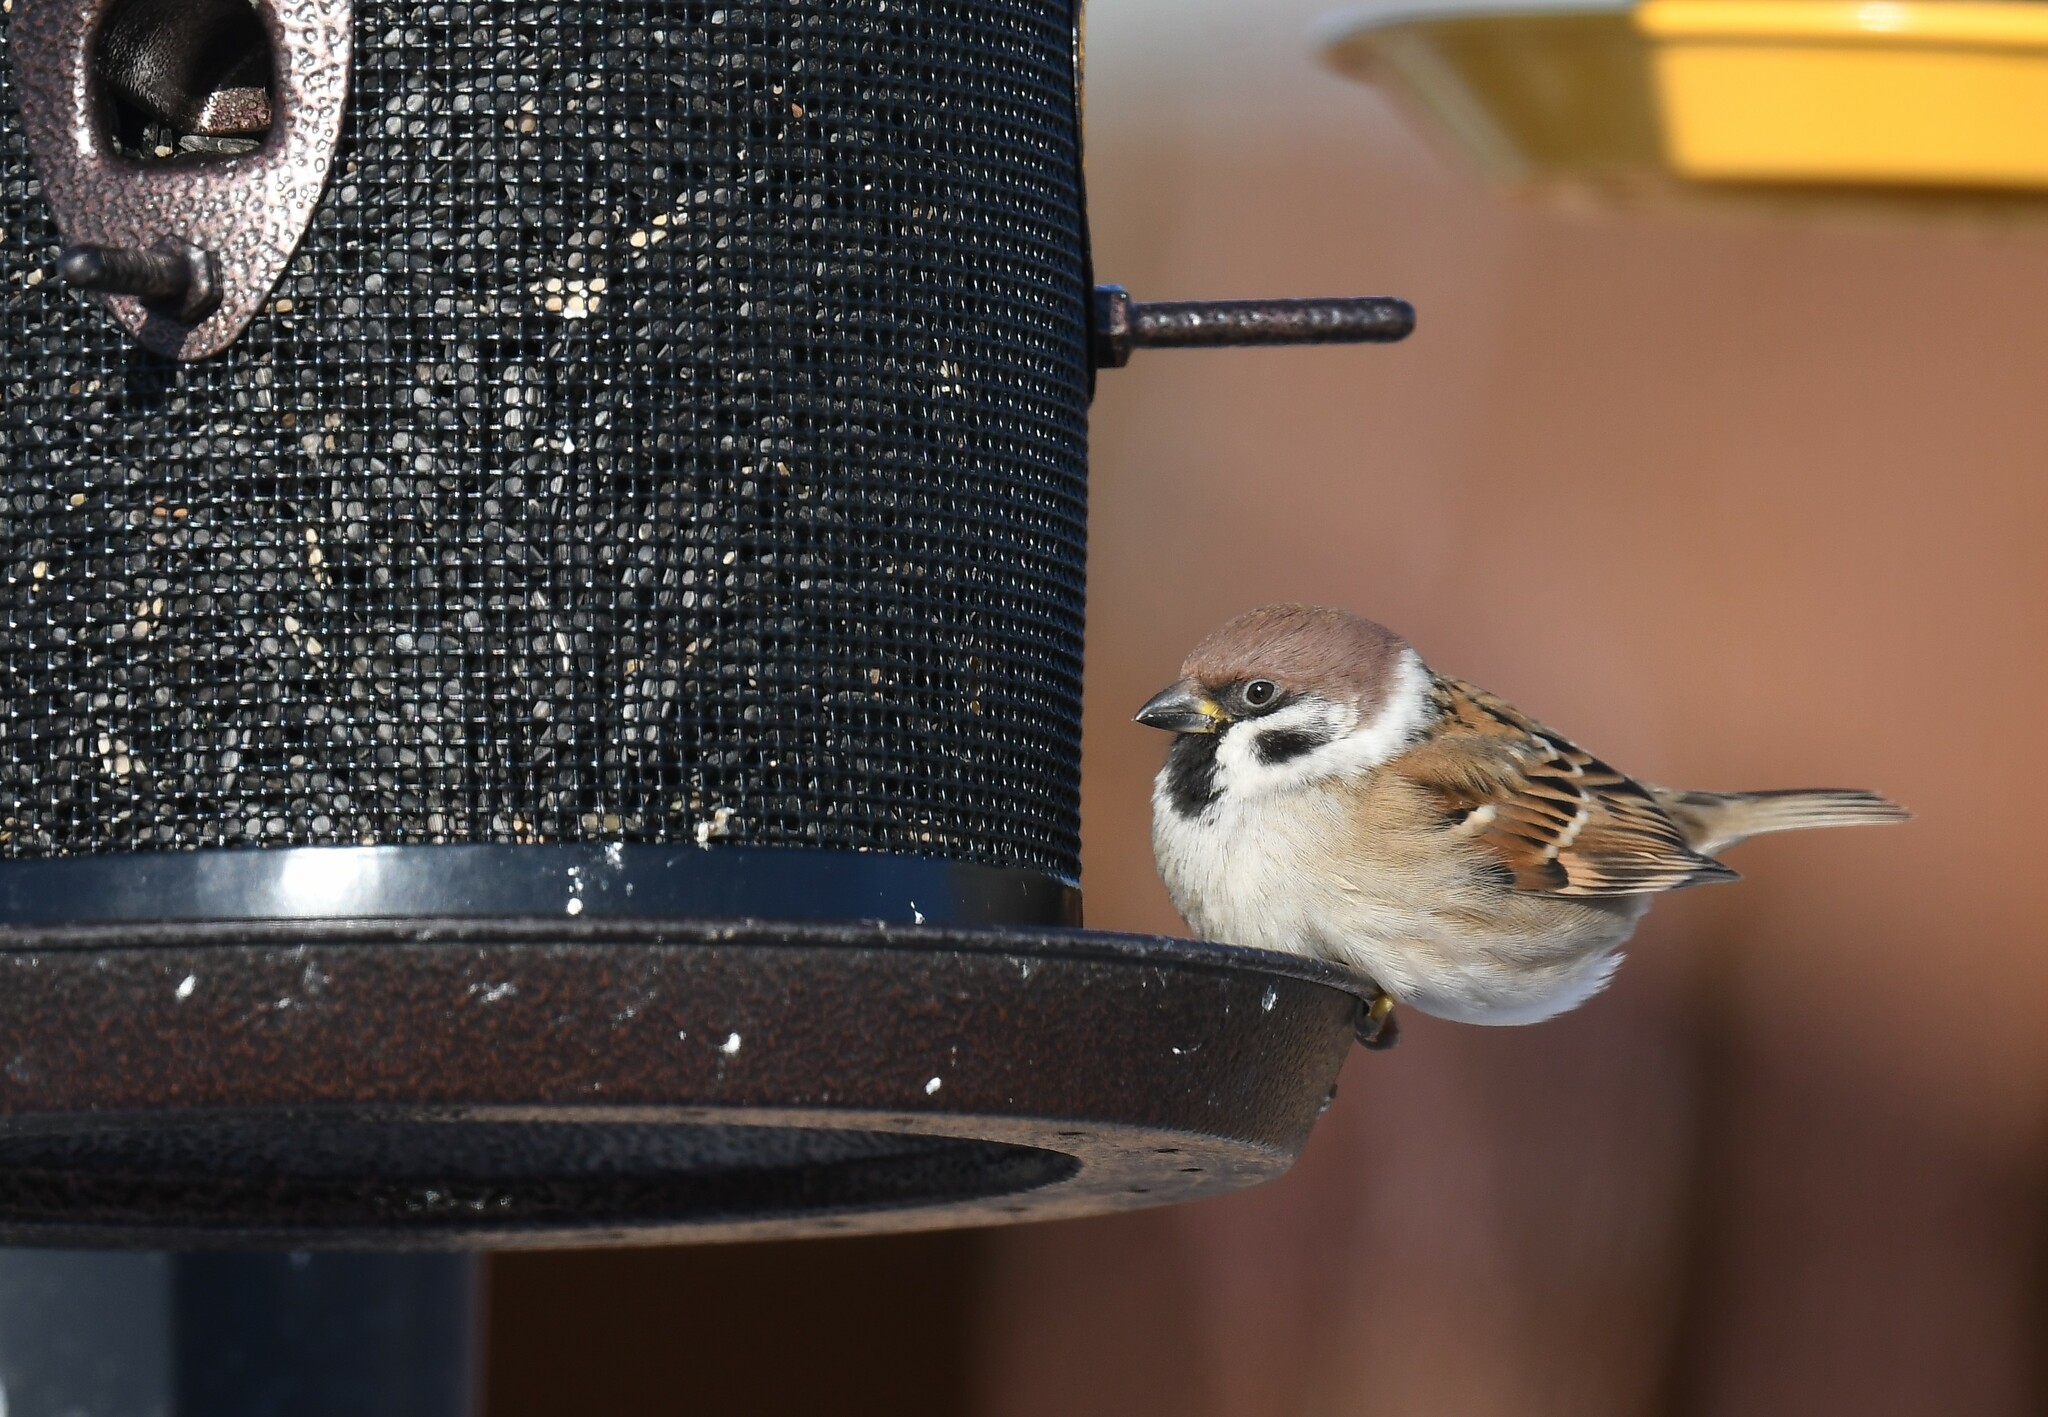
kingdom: Animalia
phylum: Chordata
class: Aves
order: Passeriformes
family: Passeridae
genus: Passer
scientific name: Passer montanus
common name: Eurasian tree sparrow
